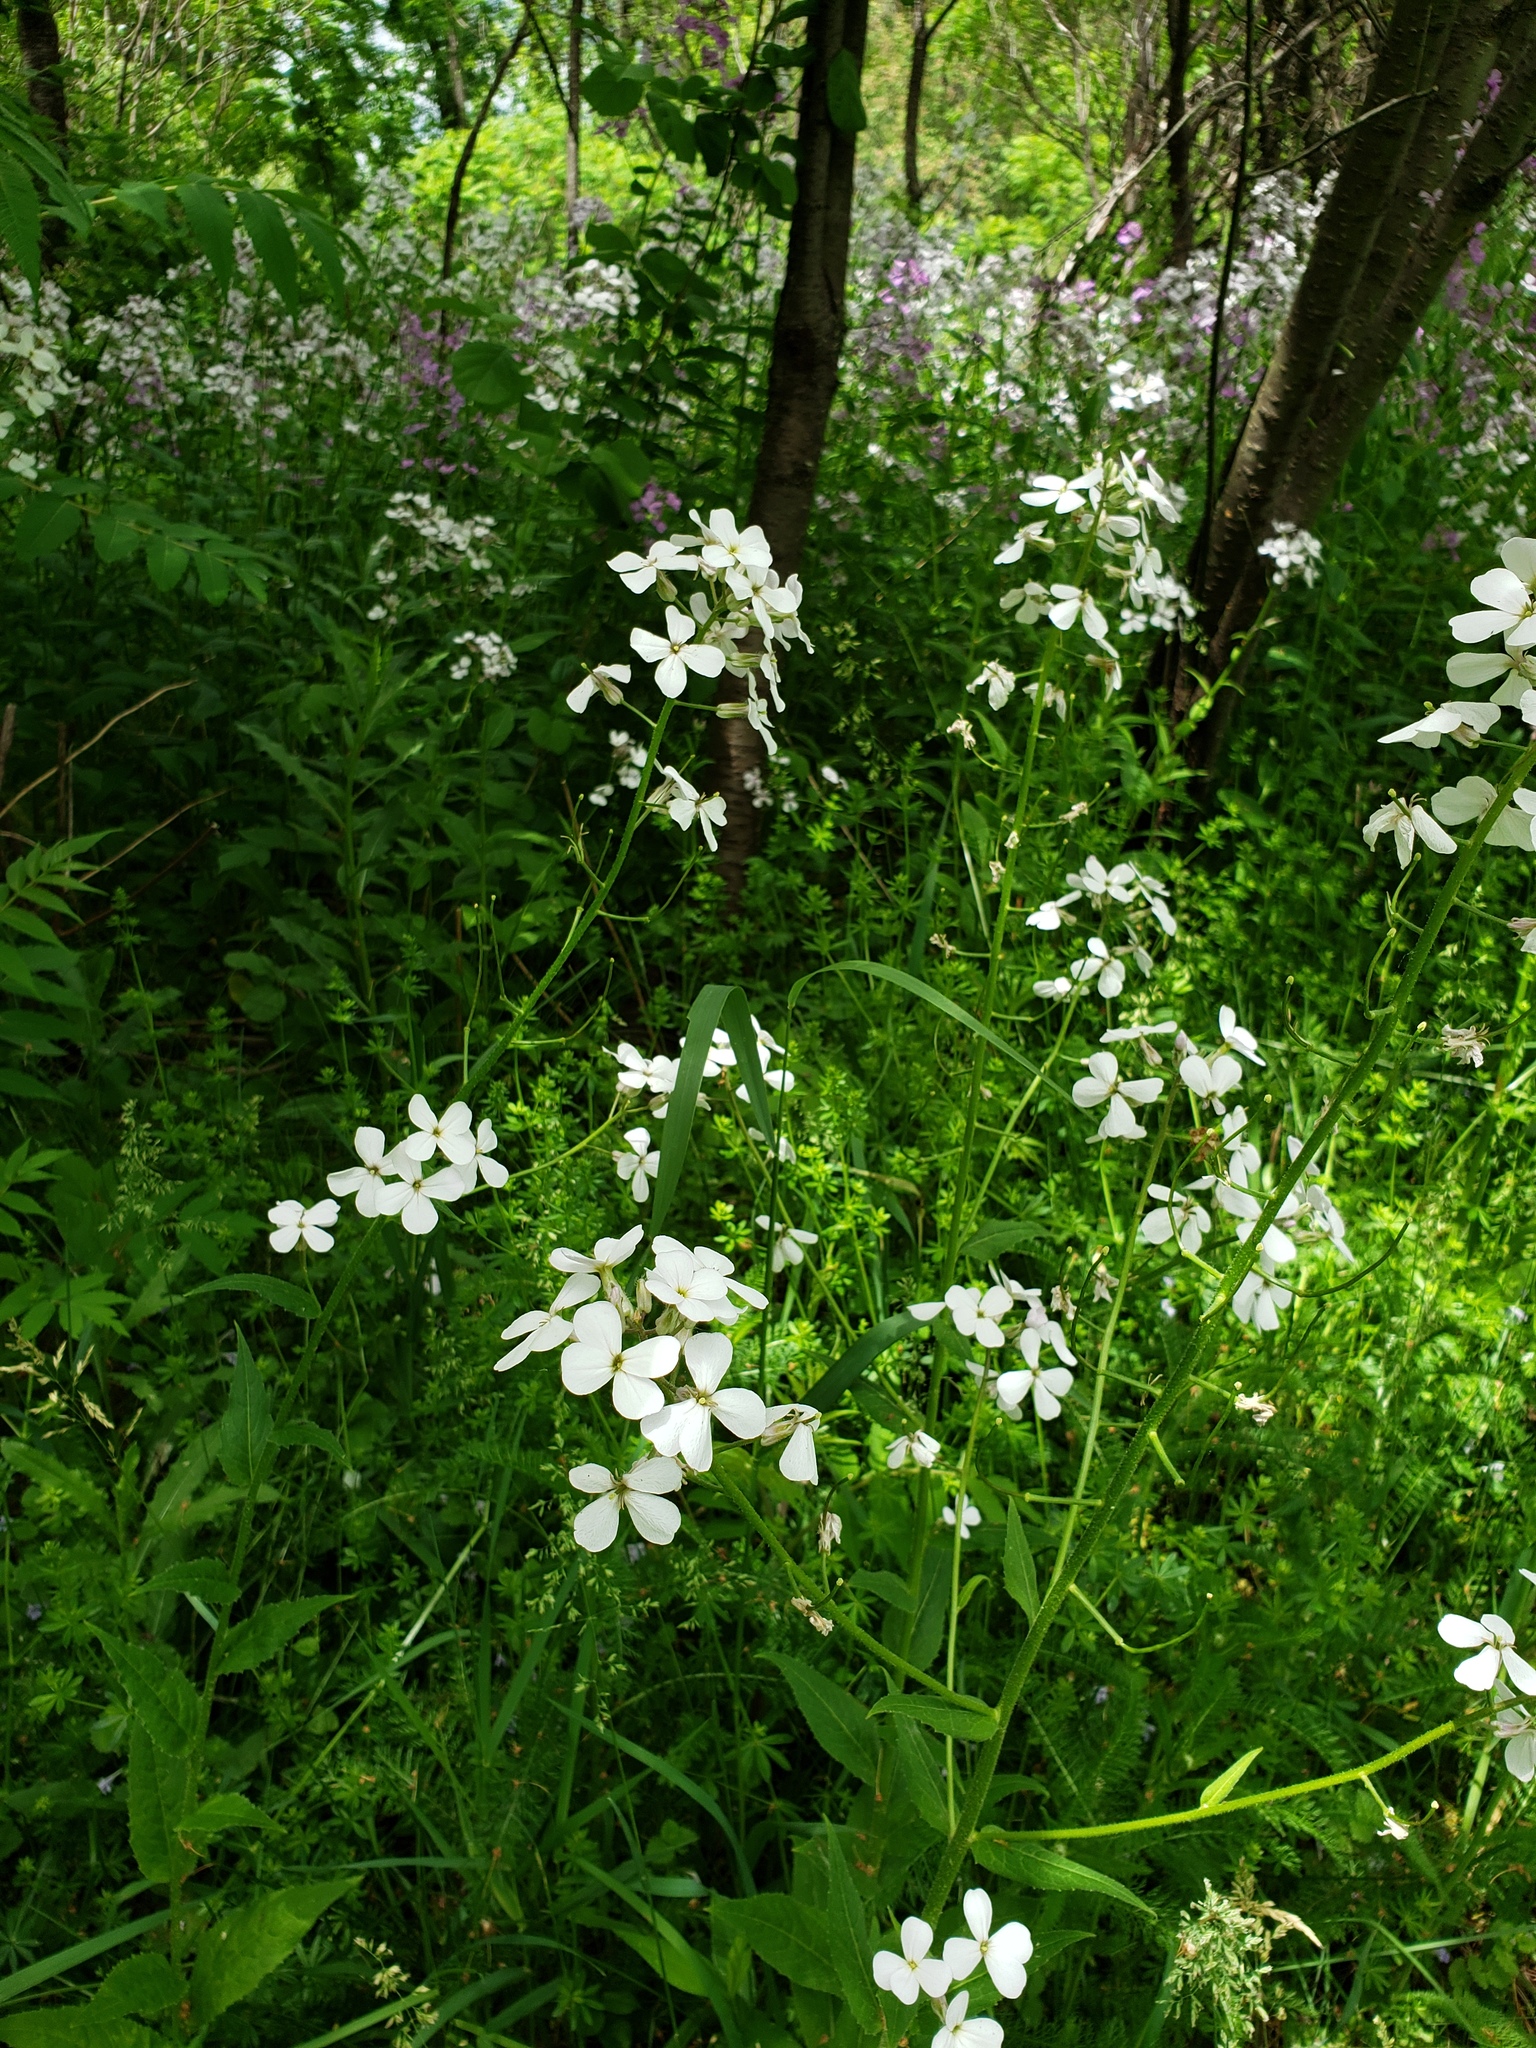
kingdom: Plantae
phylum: Tracheophyta
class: Magnoliopsida
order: Brassicales
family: Brassicaceae
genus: Hesperis
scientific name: Hesperis matronalis
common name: Dame's-violet
